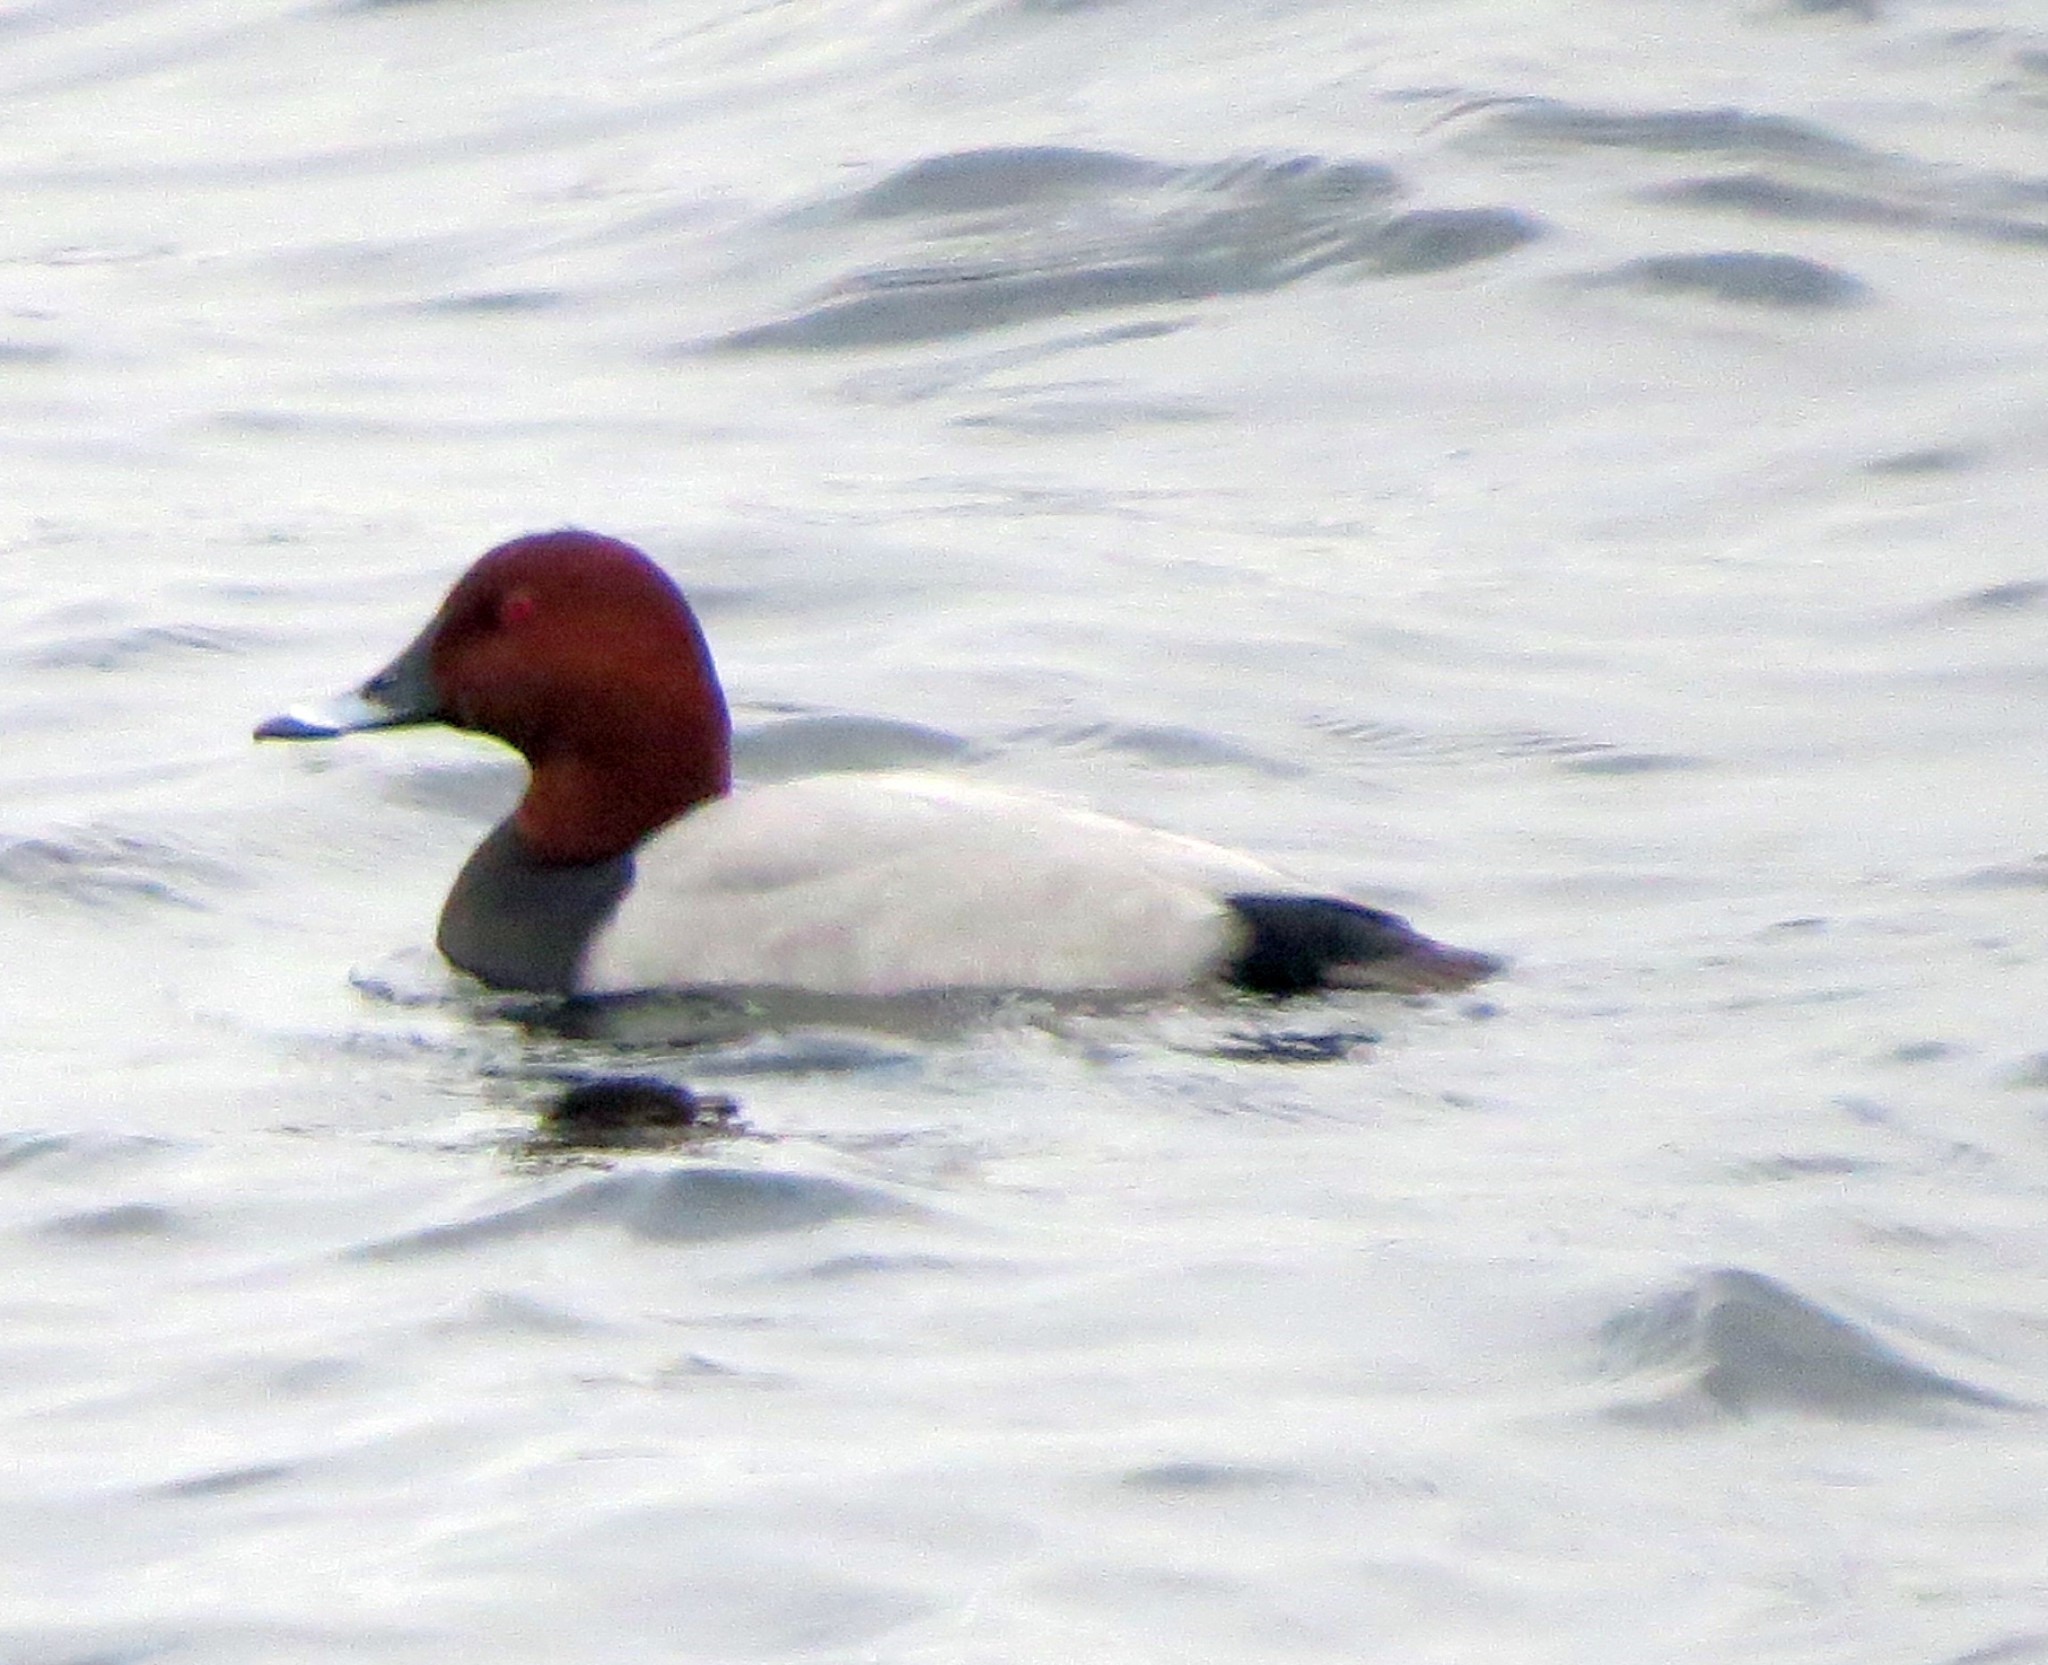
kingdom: Animalia
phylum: Chordata
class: Aves
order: Anseriformes
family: Anatidae
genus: Aythya
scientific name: Aythya ferina
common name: Common pochard
